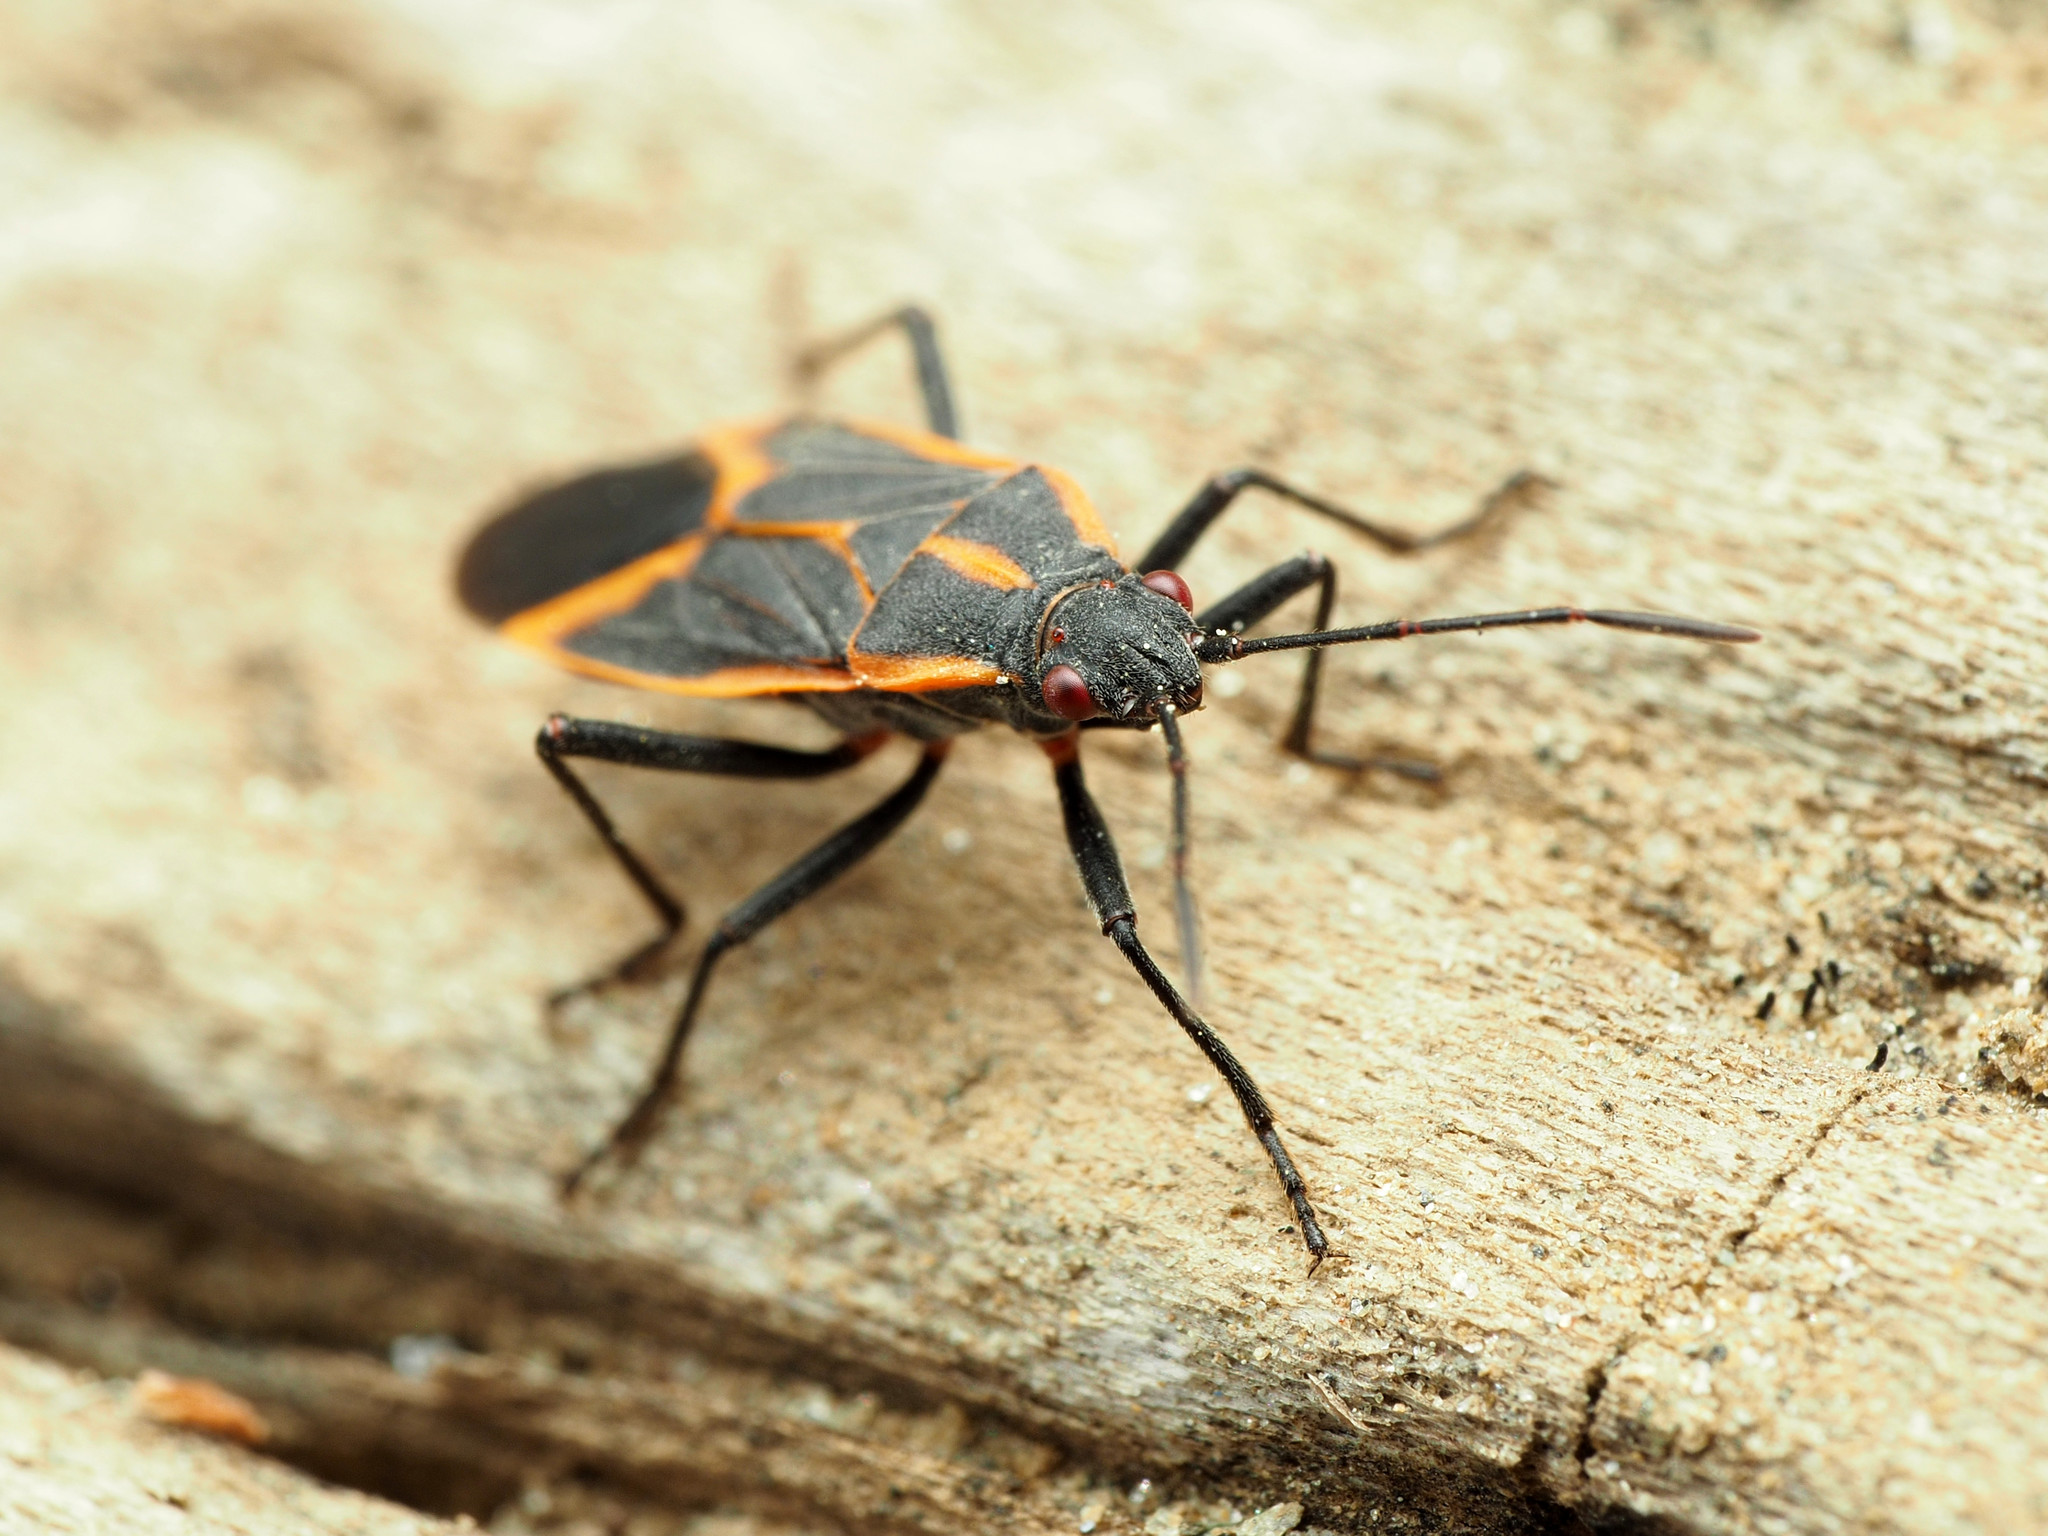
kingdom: Animalia
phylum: Arthropoda
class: Insecta
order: Hemiptera
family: Rhopalidae
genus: Boisea
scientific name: Boisea trivittata
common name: Boxelder bug
